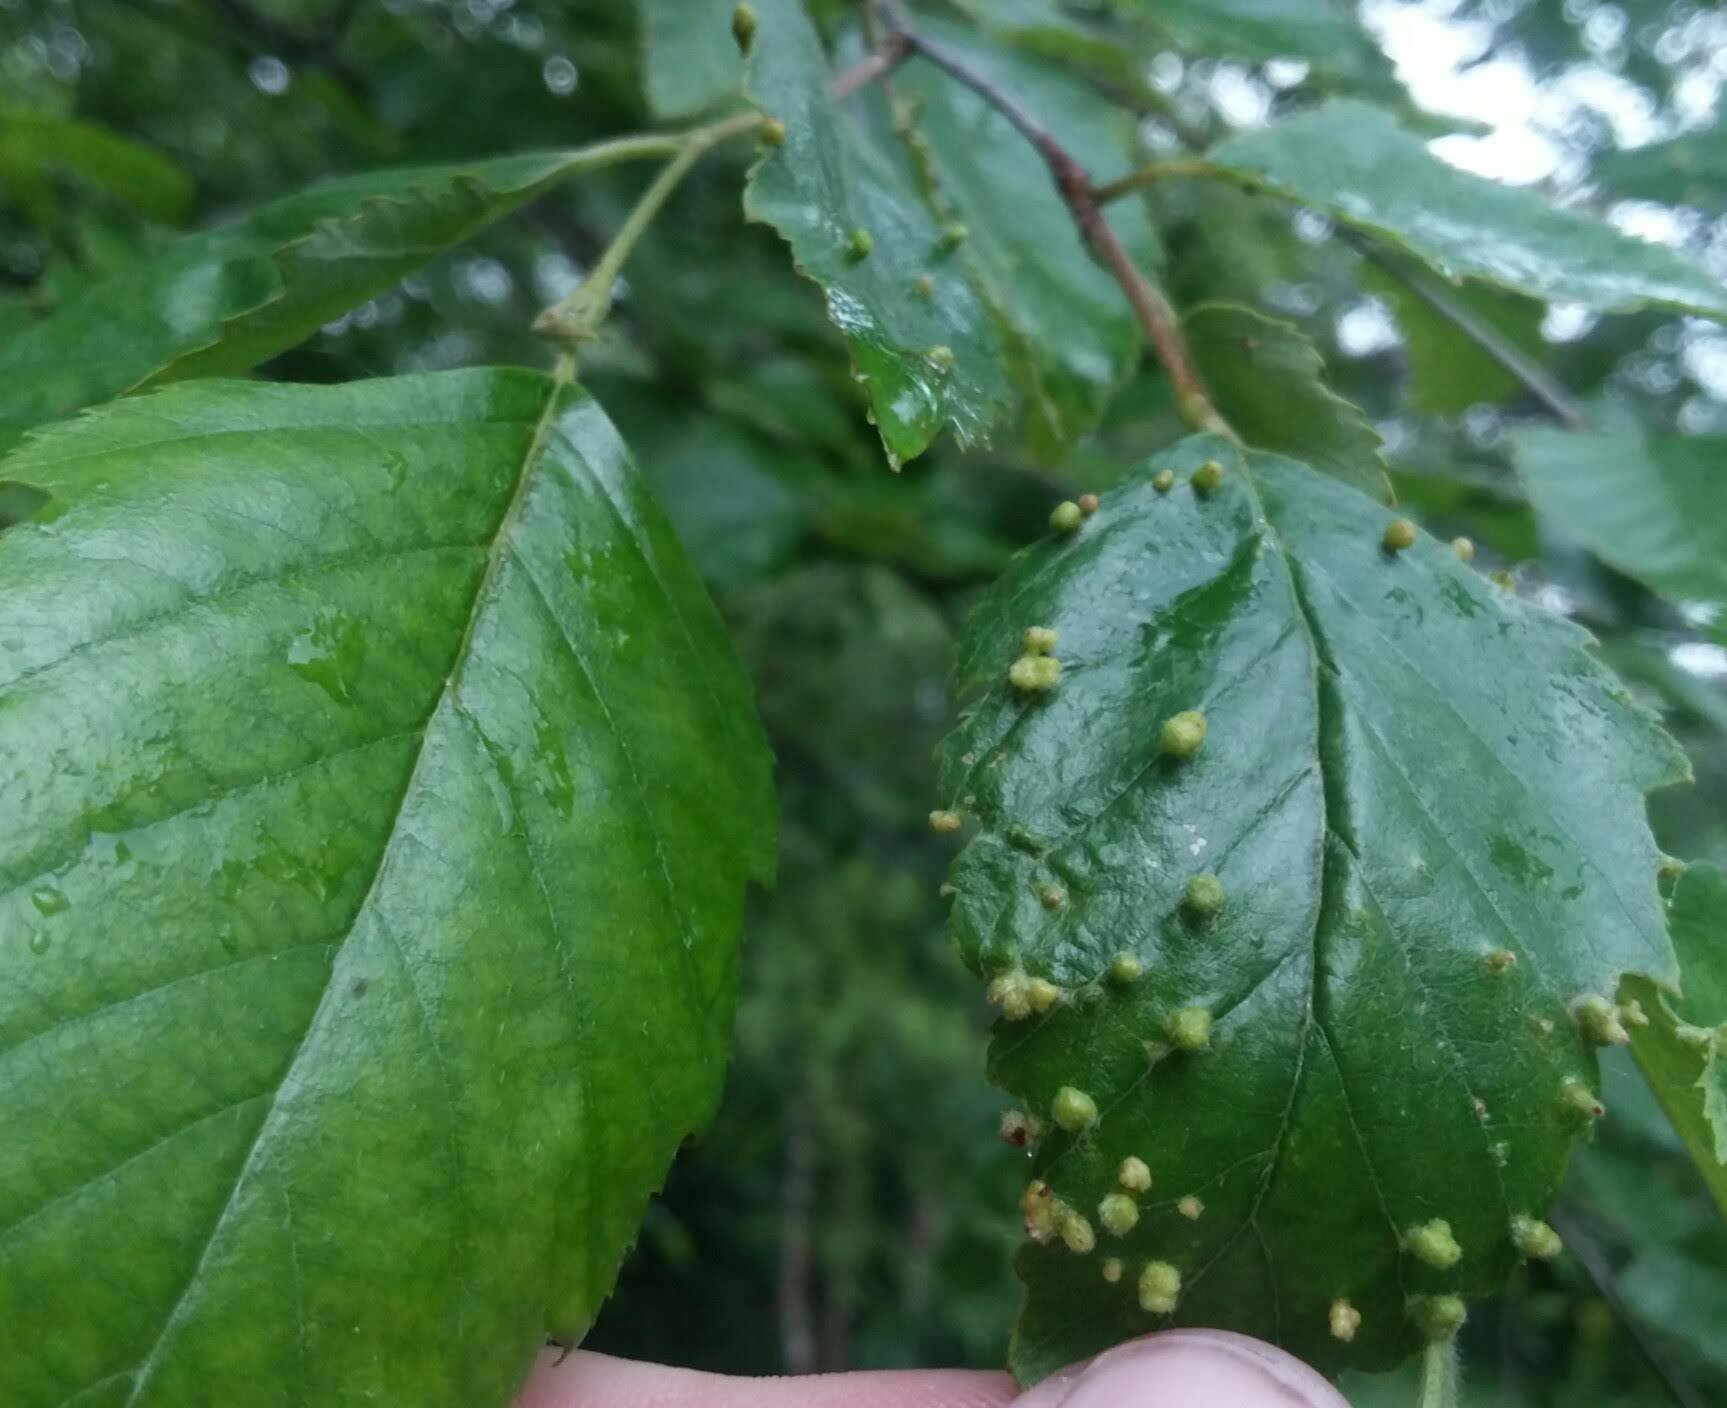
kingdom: Animalia
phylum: Arthropoda
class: Arachnida
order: Trombidiformes
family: Eriophyidae
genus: Aculus
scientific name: Aculus leionotus
